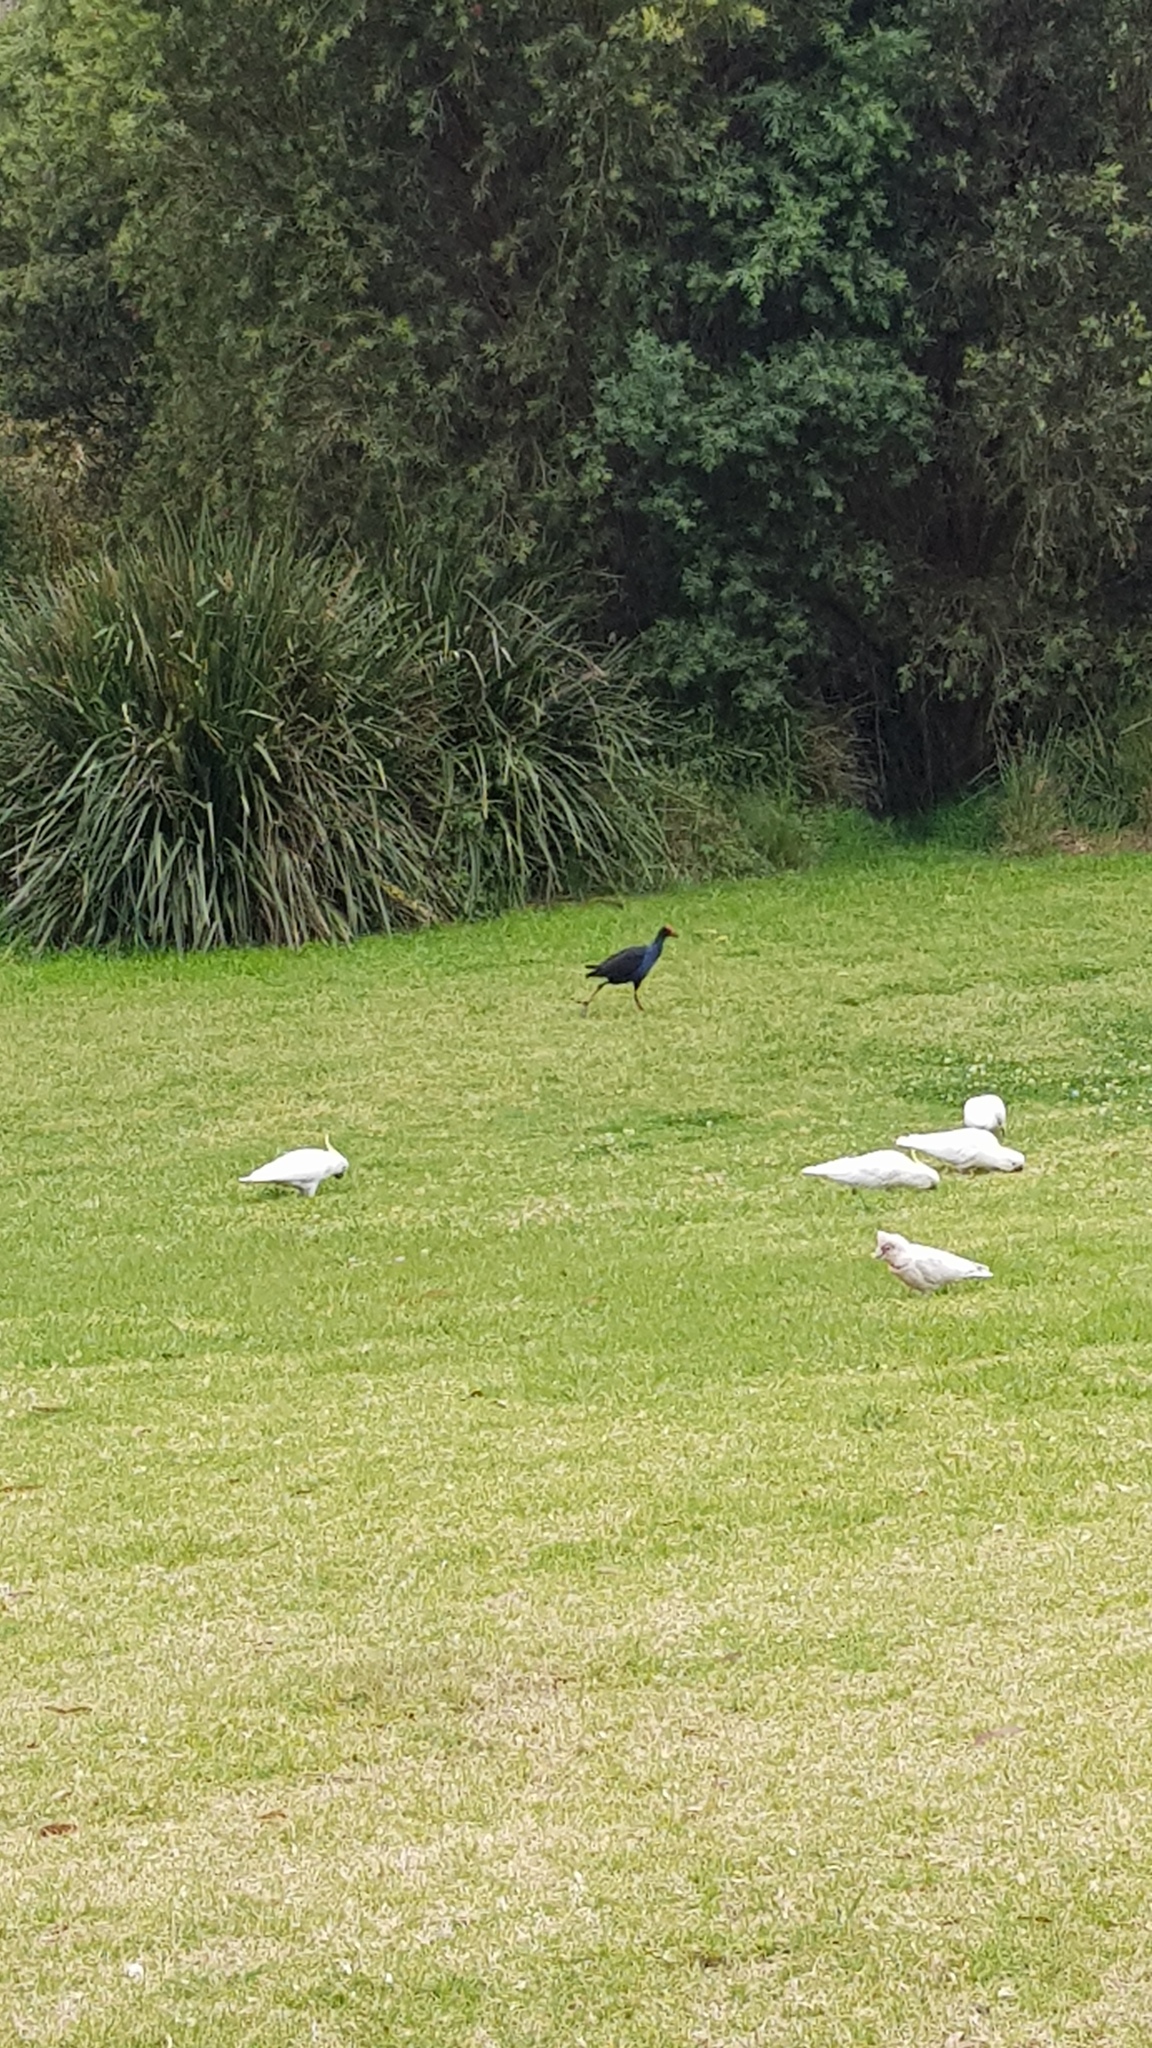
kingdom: Animalia
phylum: Chordata
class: Aves
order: Gruiformes
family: Rallidae
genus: Porphyrio
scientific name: Porphyrio melanotus
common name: Australasian swamphen
